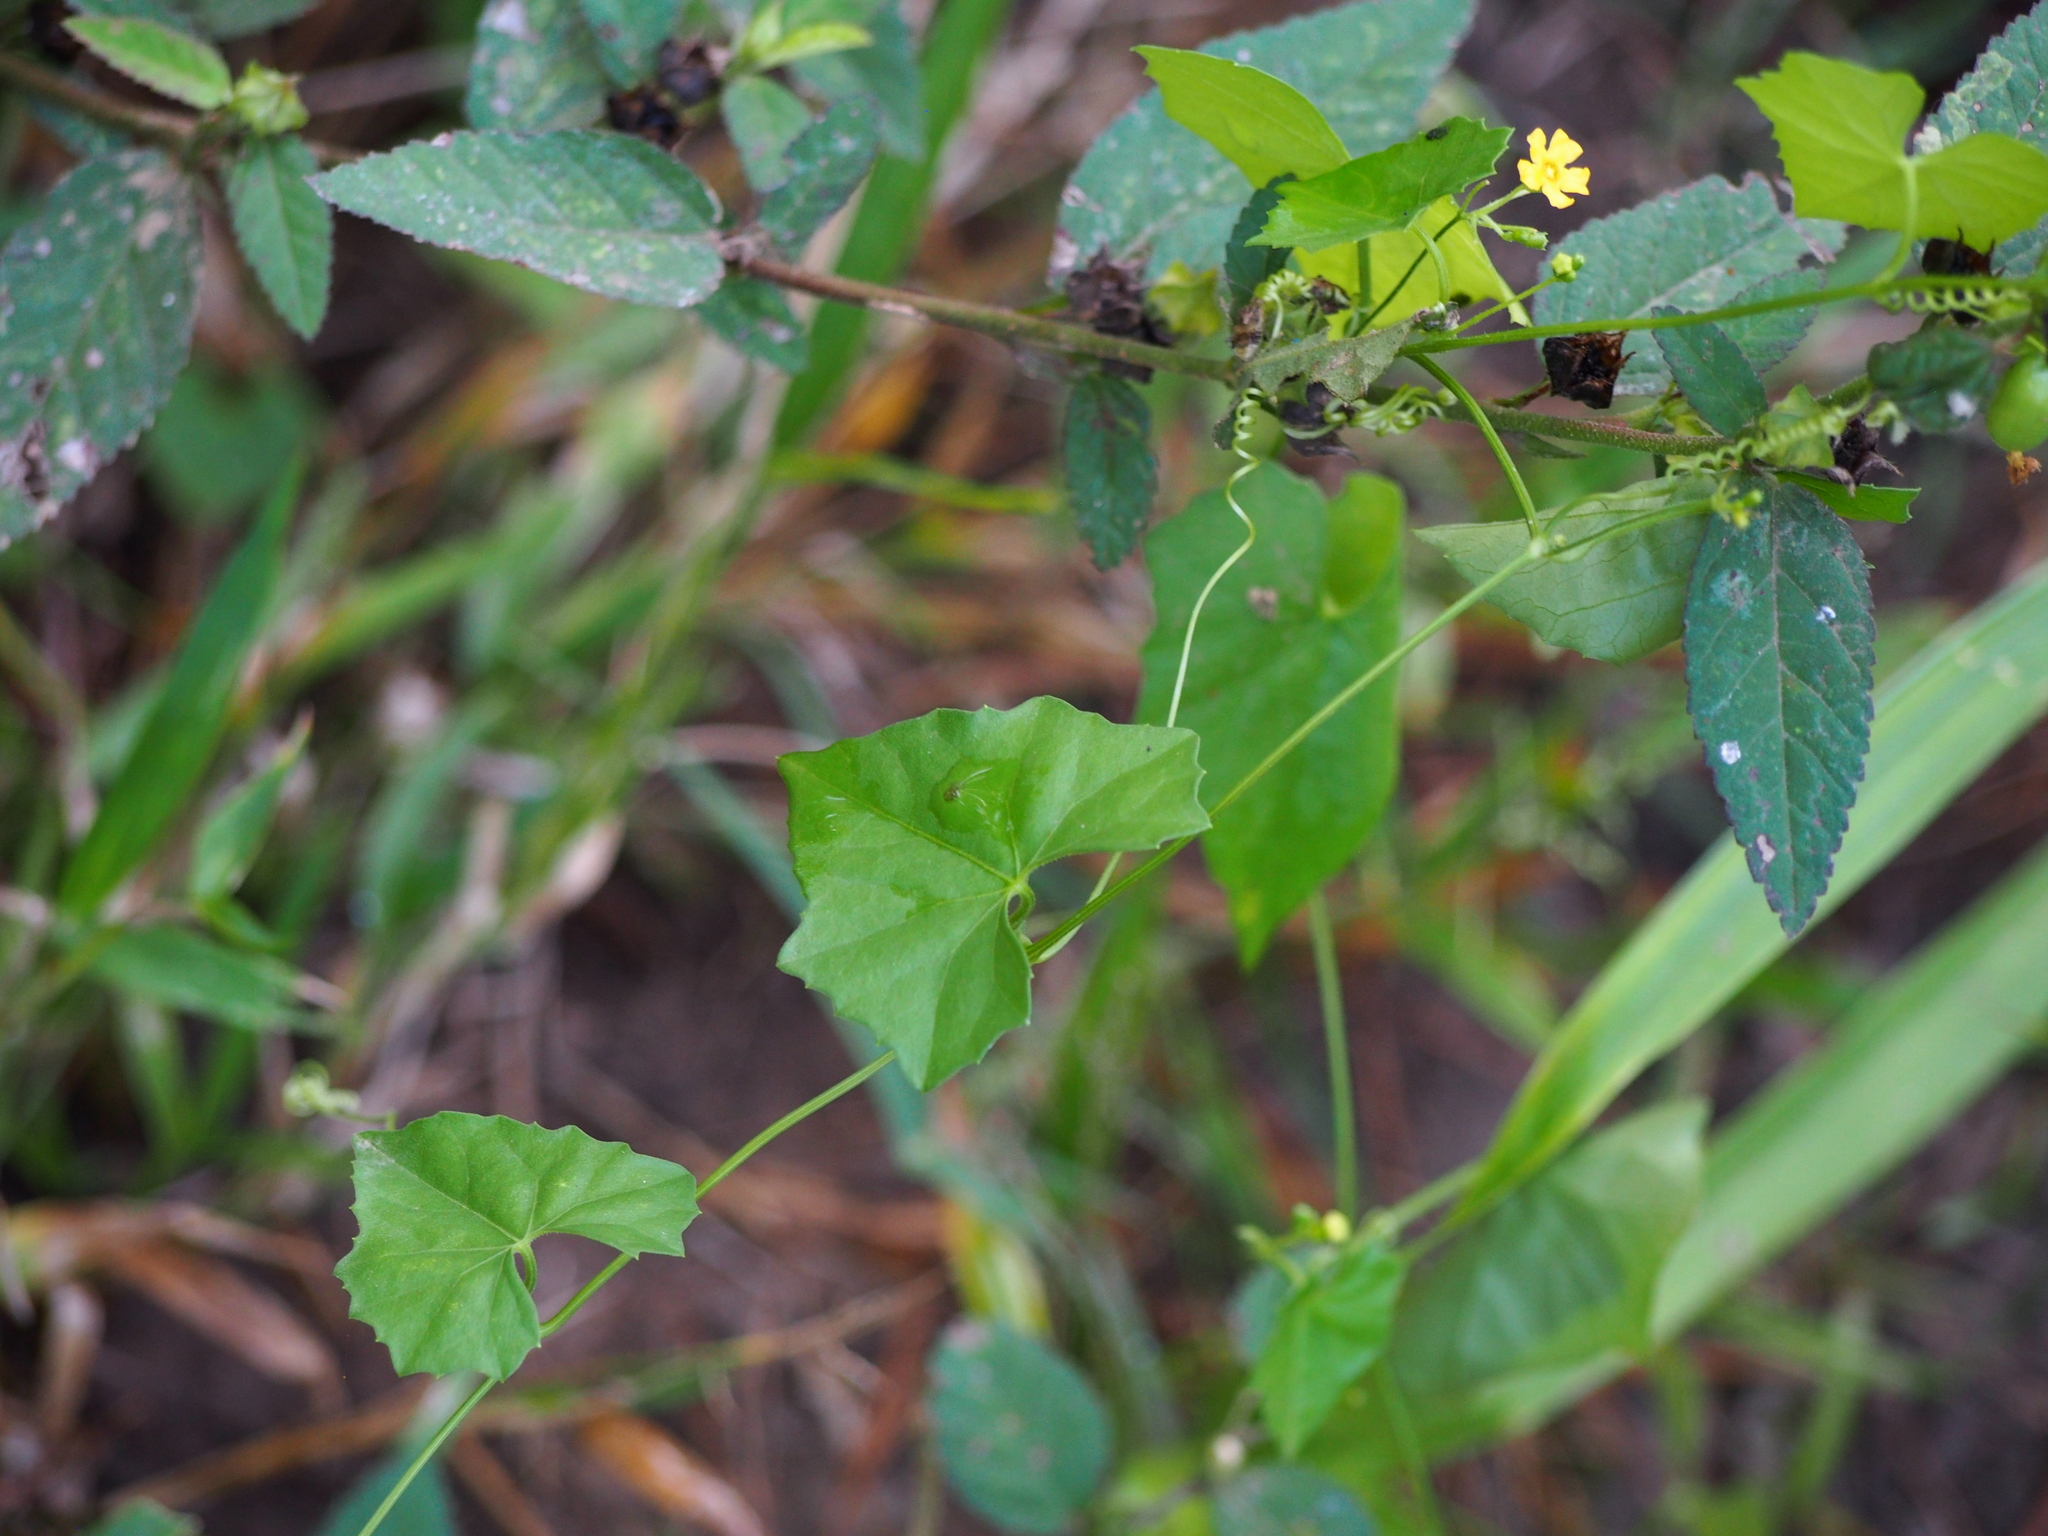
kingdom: Plantae
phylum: Tracheophyta
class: Magnoliopsida
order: Cucurbitales
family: Cucurbitaceae
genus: Melothria
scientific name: Melothria pendula
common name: Creeping-cucumber
